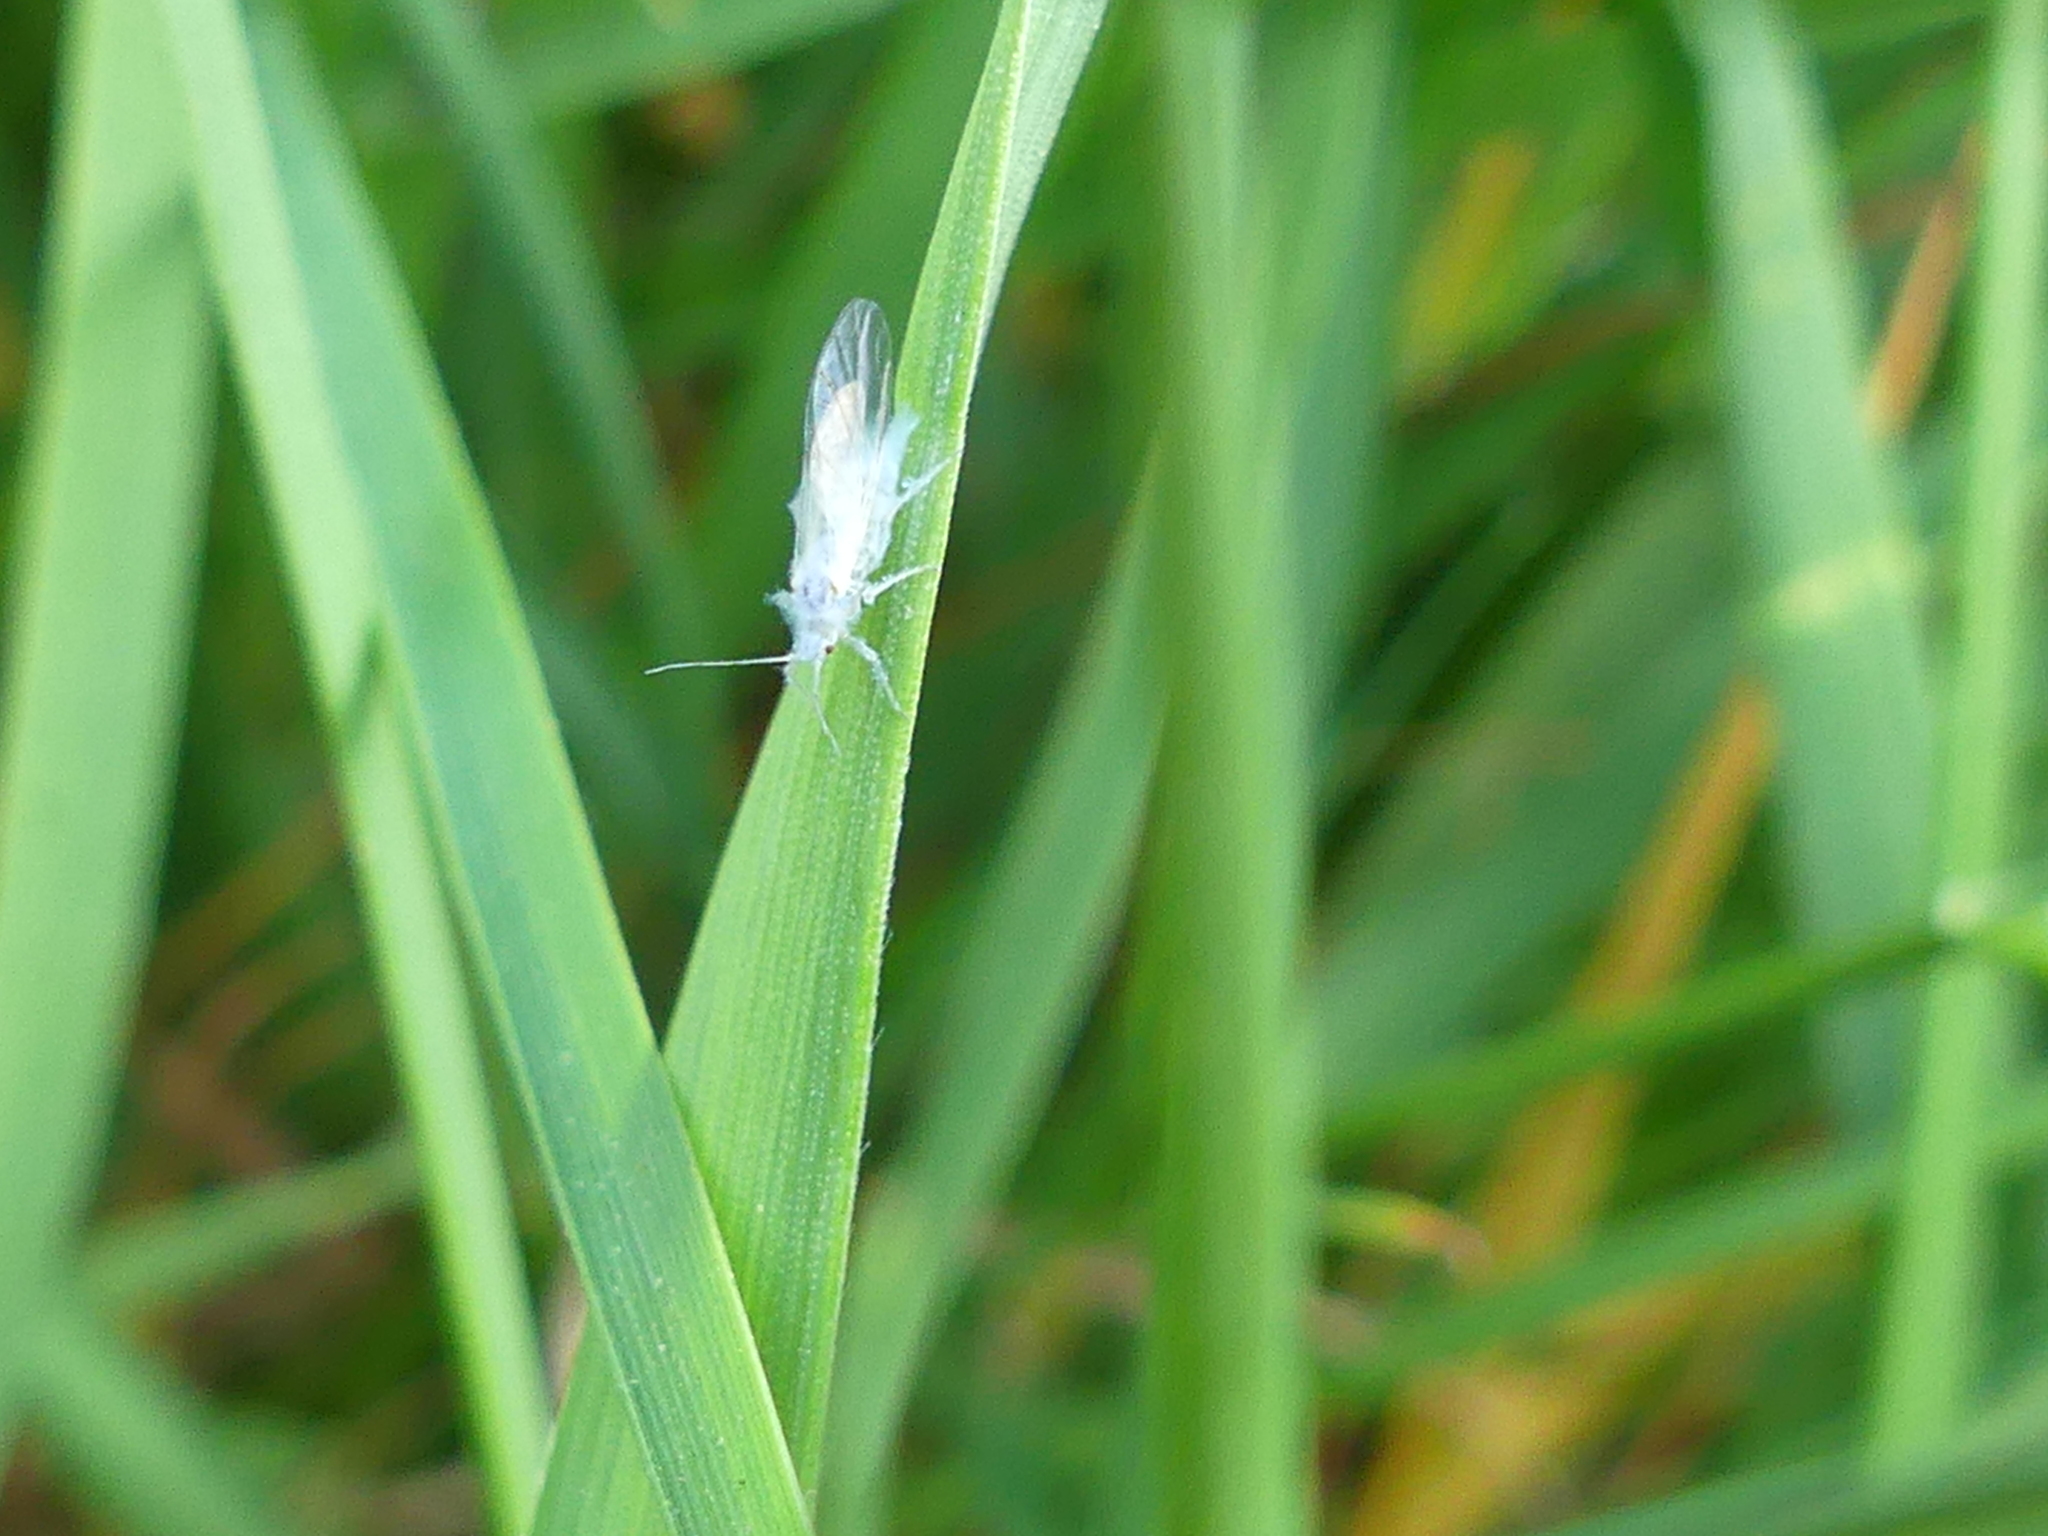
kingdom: Animalia
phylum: Arthropoda
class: Insecta
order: Hemiptera
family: Aphididae
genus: Phyllaphis
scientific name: Phyllaphis fagi
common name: Beech aphid
